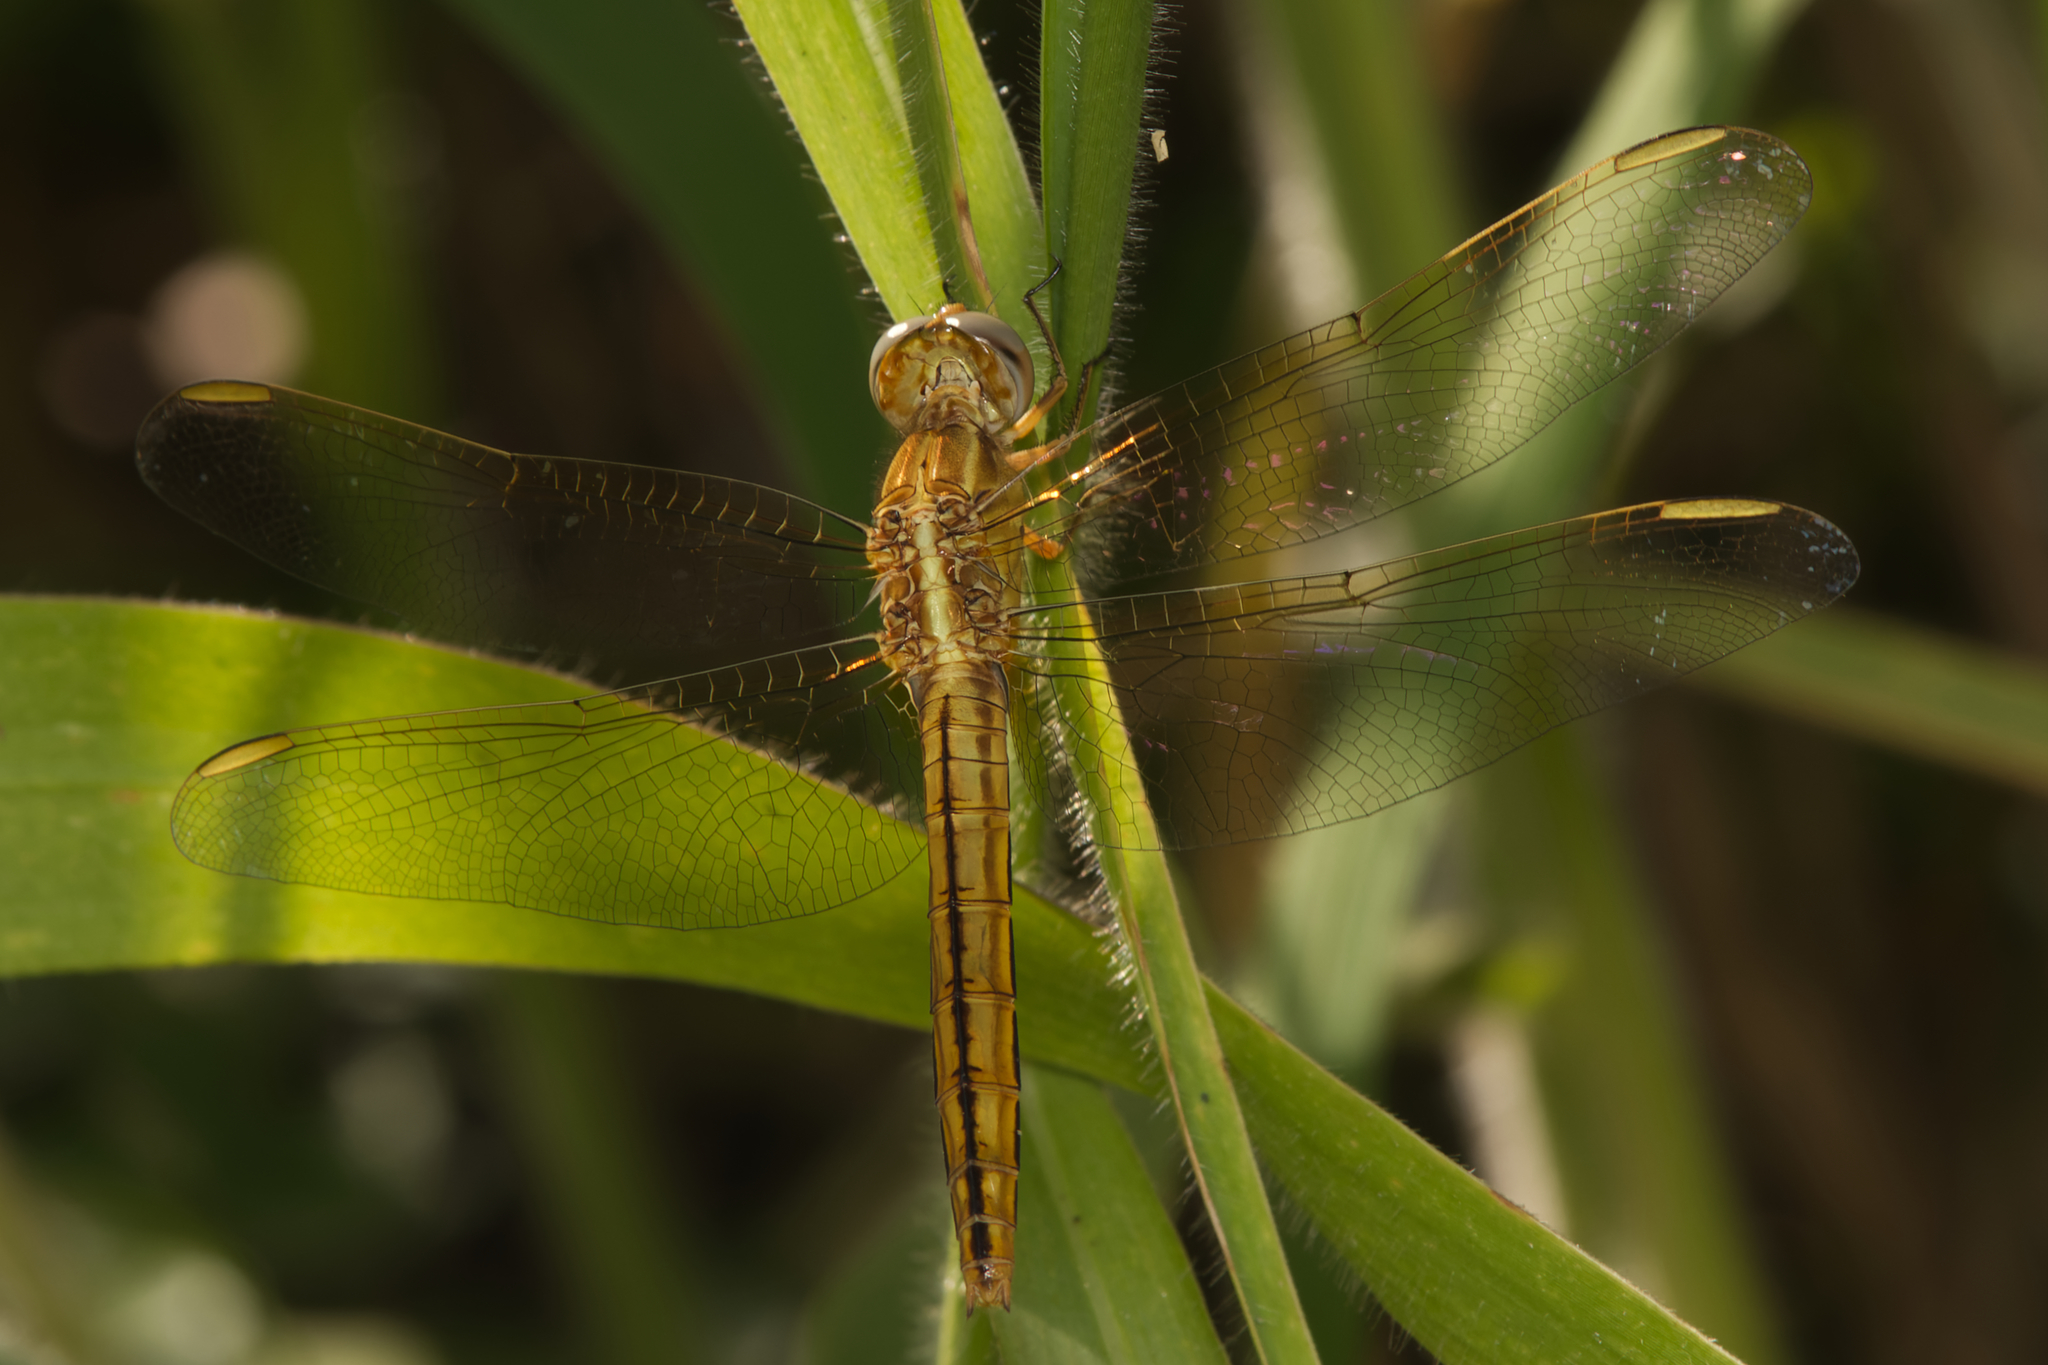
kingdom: Animalia
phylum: Arthropoda
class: Insecta
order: Odonata
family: Libellulidae
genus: Crocothemis
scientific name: Crocothemis nigrifrons
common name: Black-headed skimmer
